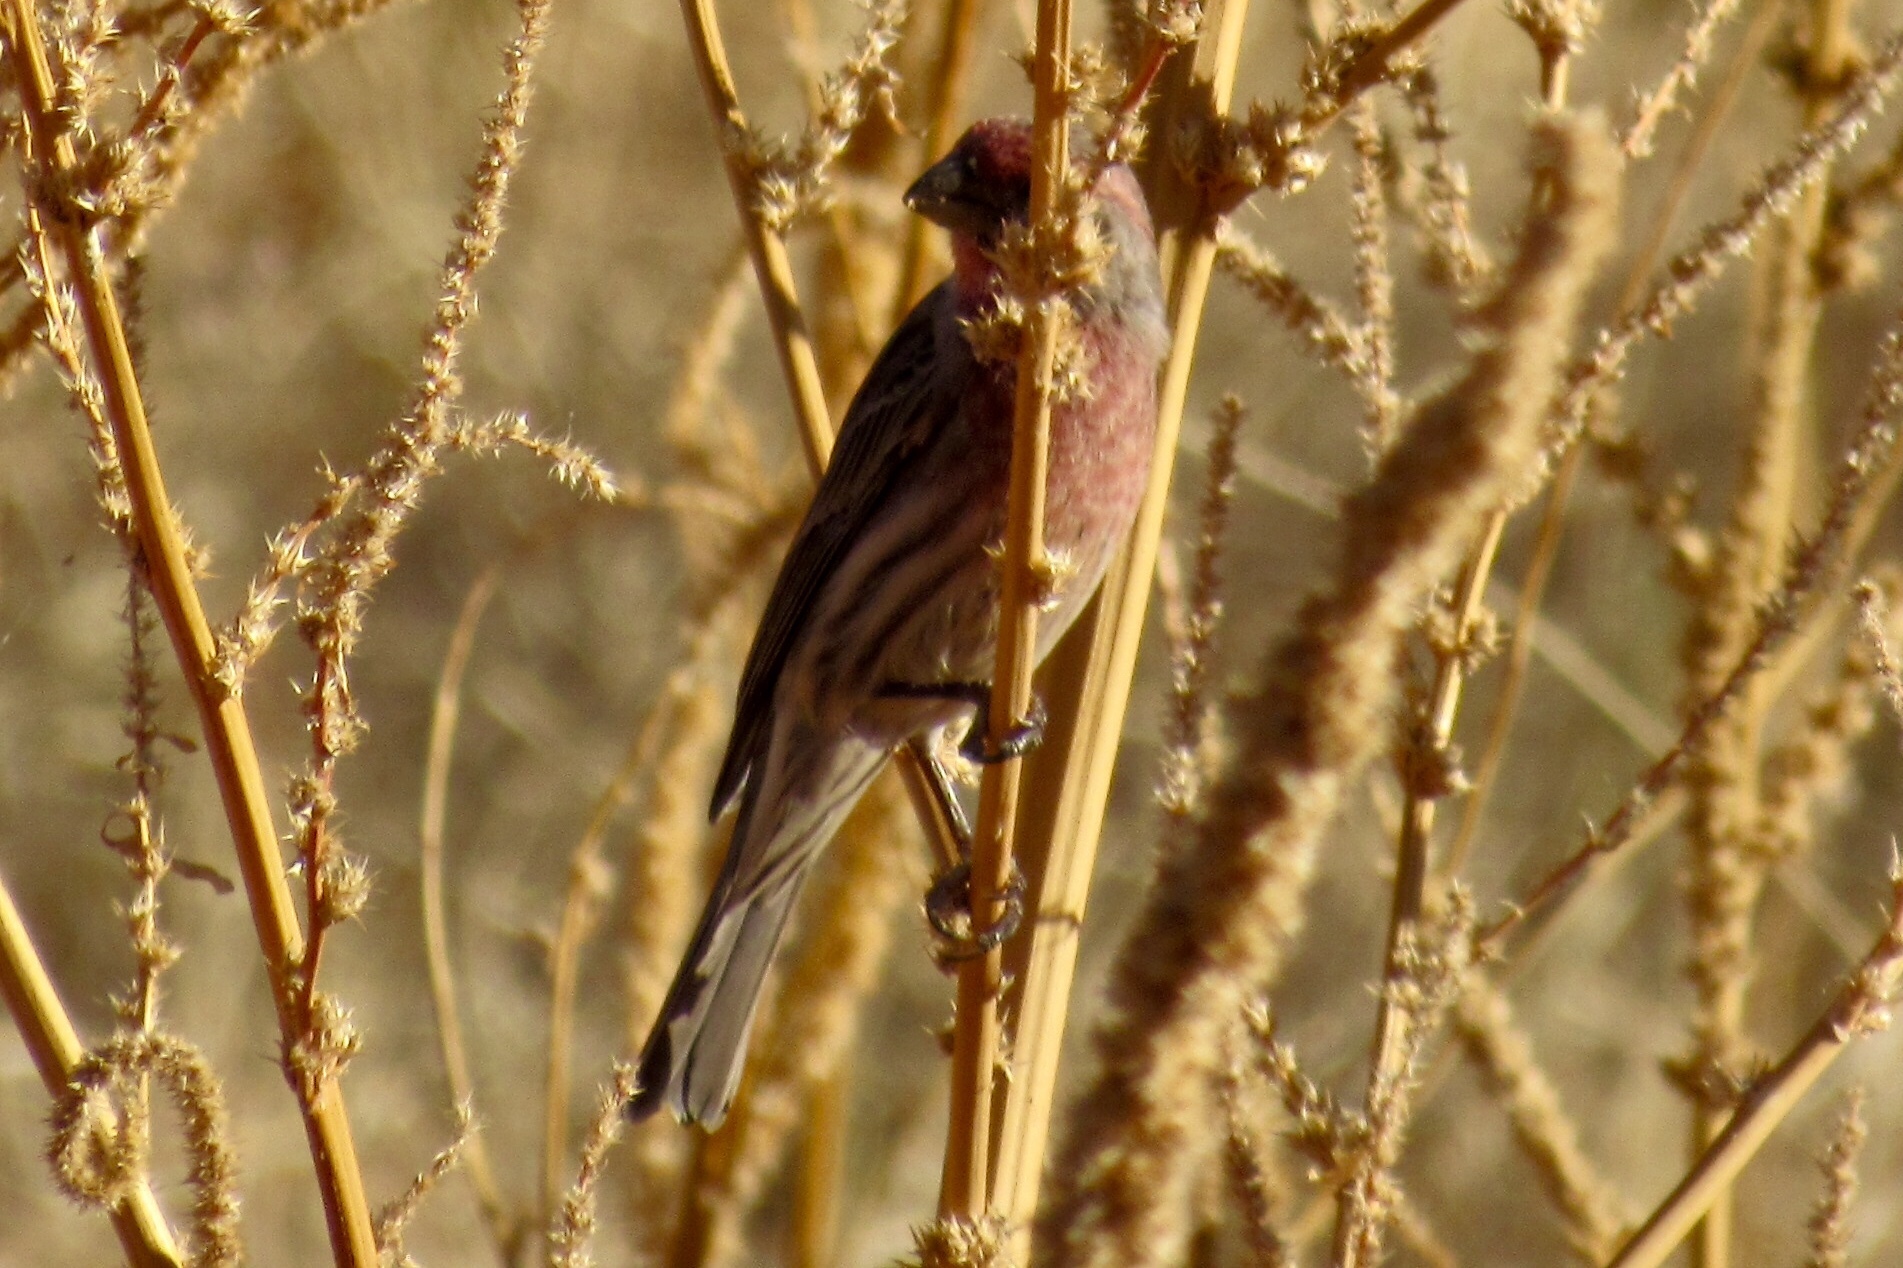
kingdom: Animalia
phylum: Chordata
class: Aves
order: Passeriformes
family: Fringillidae
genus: Haemorhous
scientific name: Haemorhous mexicanus
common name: House finch
